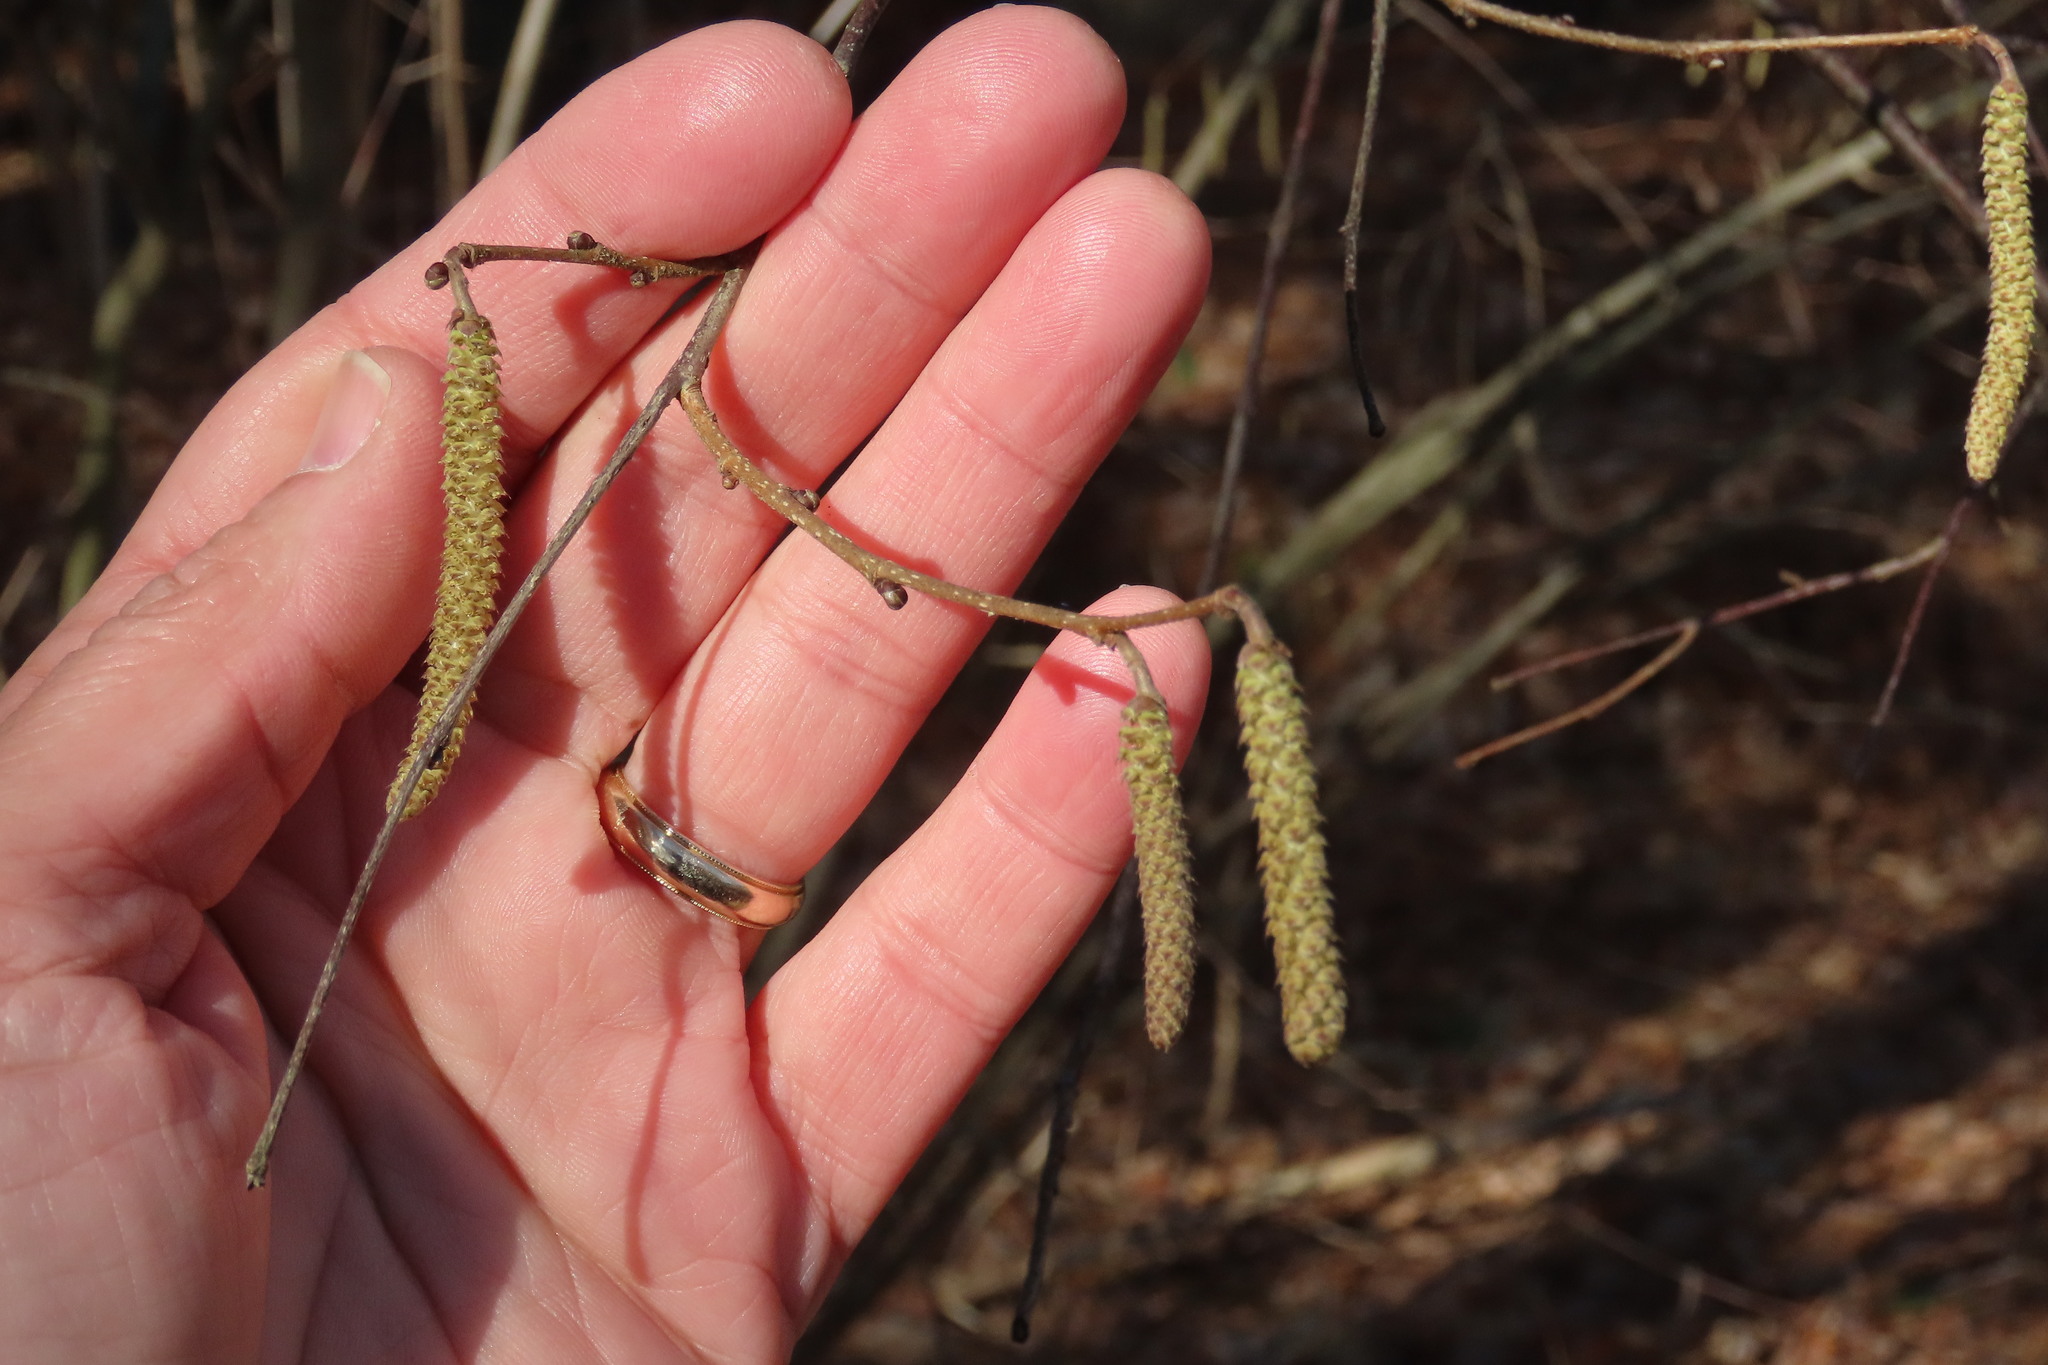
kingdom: Plantae
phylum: Tracheophyta
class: Magnoliopsida
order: Fagales
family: Betulaceae
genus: Corylus
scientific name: Corylus americana
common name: American hazel
